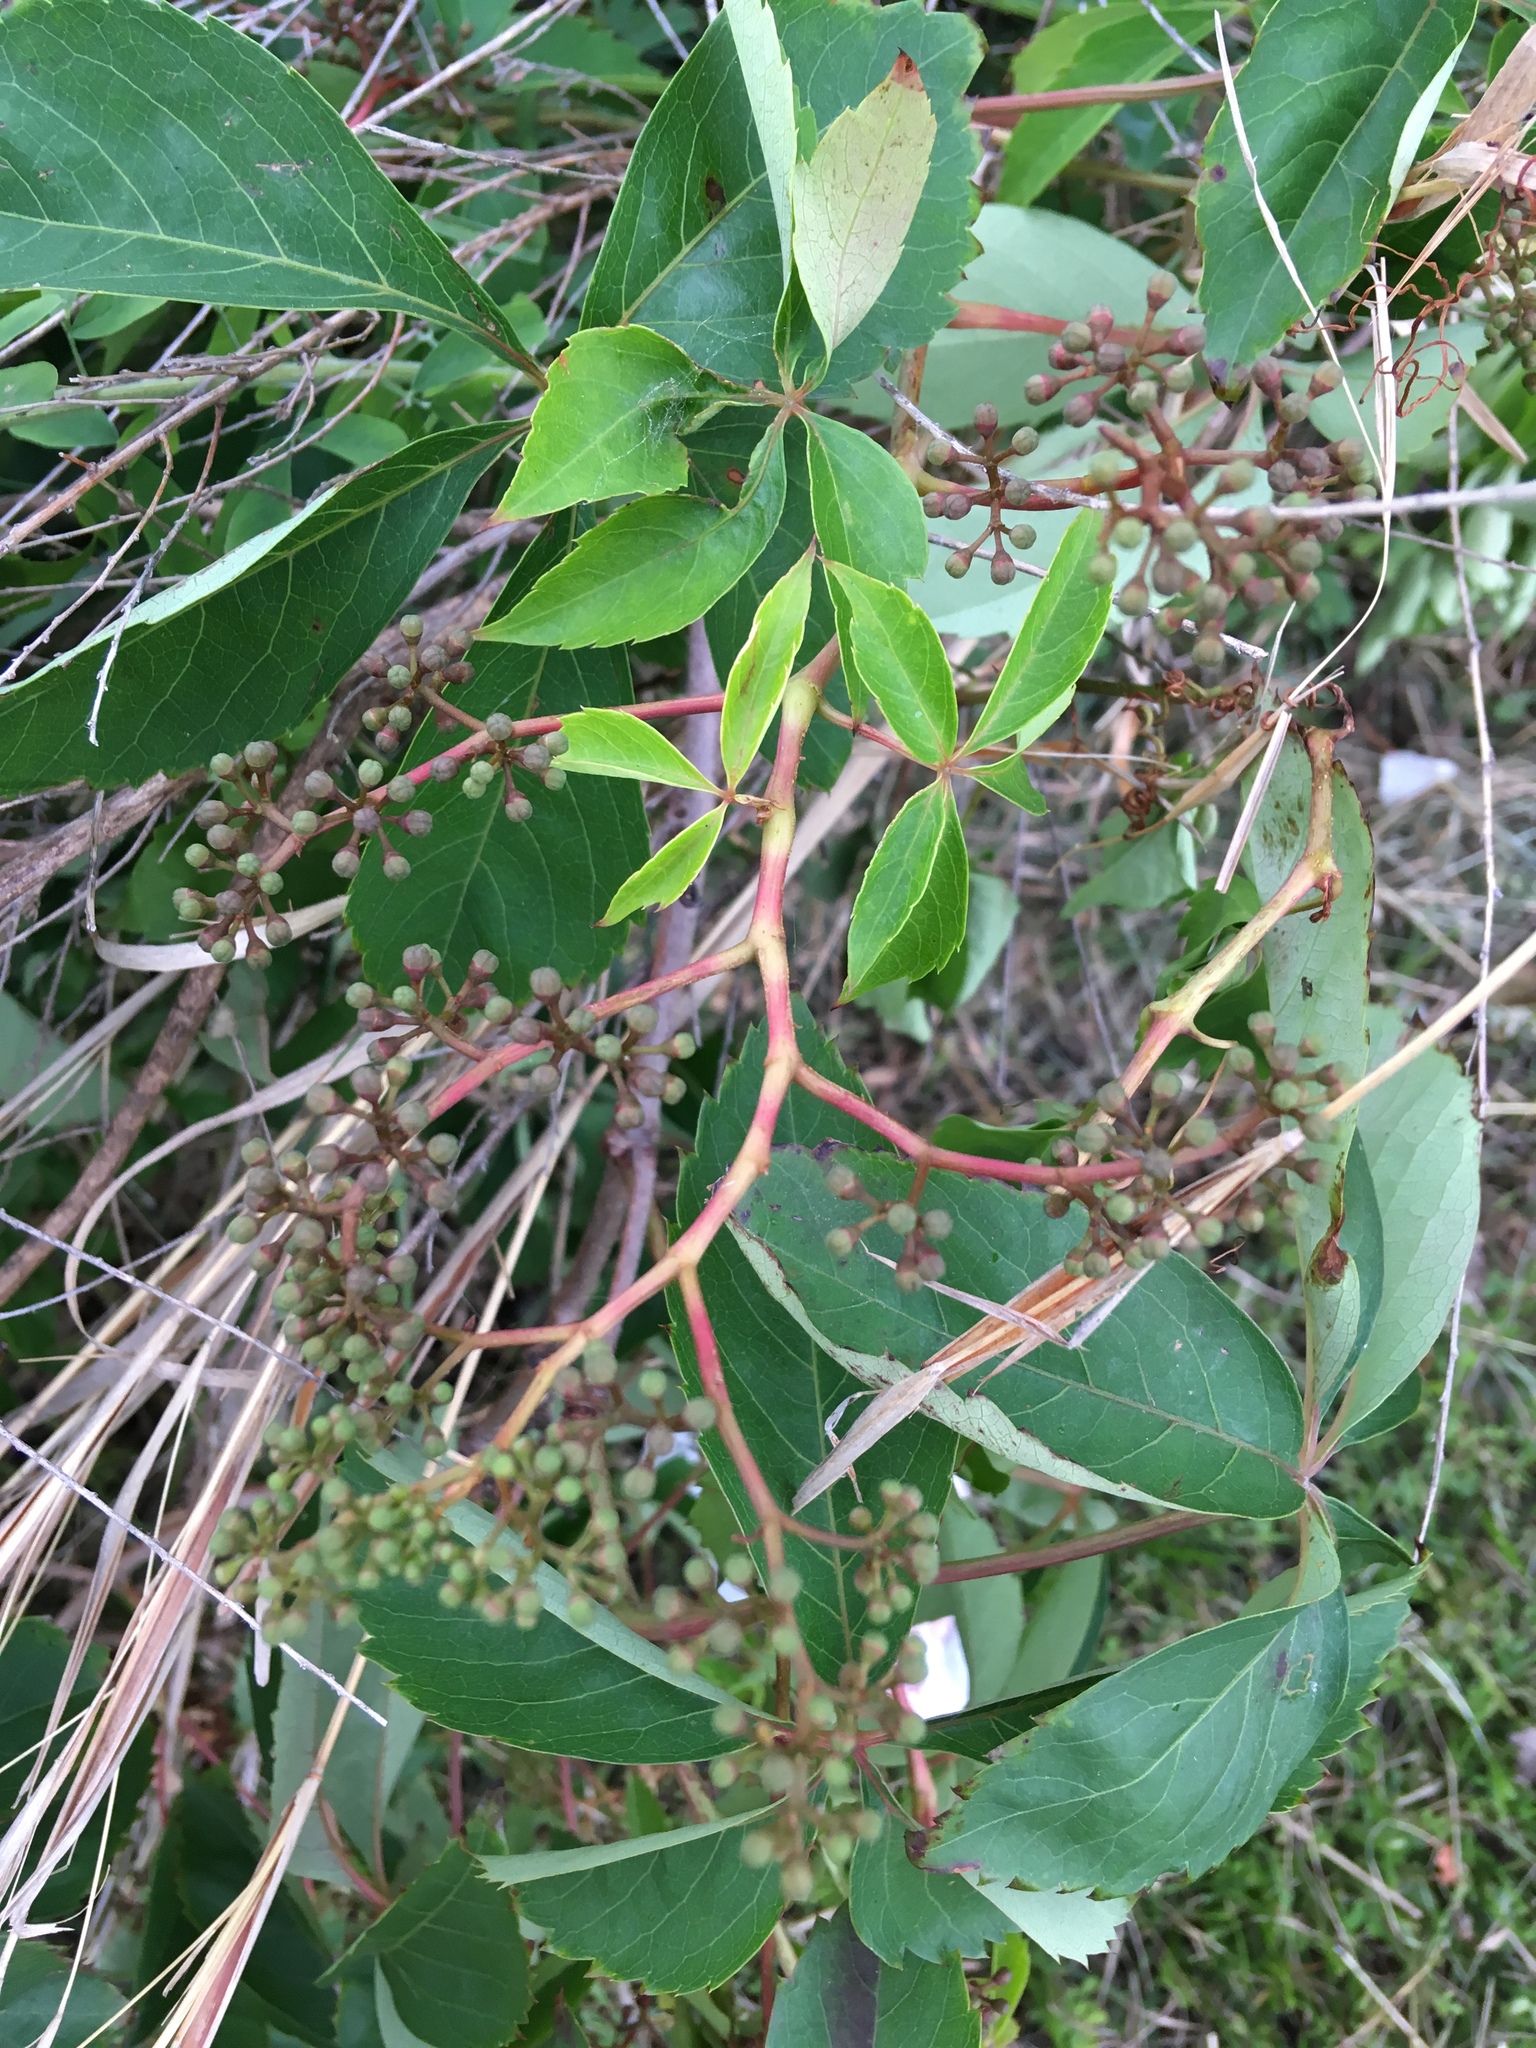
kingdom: Plantae
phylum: Tracheophyta
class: Magnoliopsida
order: Vitales
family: Vitaceae
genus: Parthenocissus
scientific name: Parthenocissus quinquefolia
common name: Virginia-creeper
